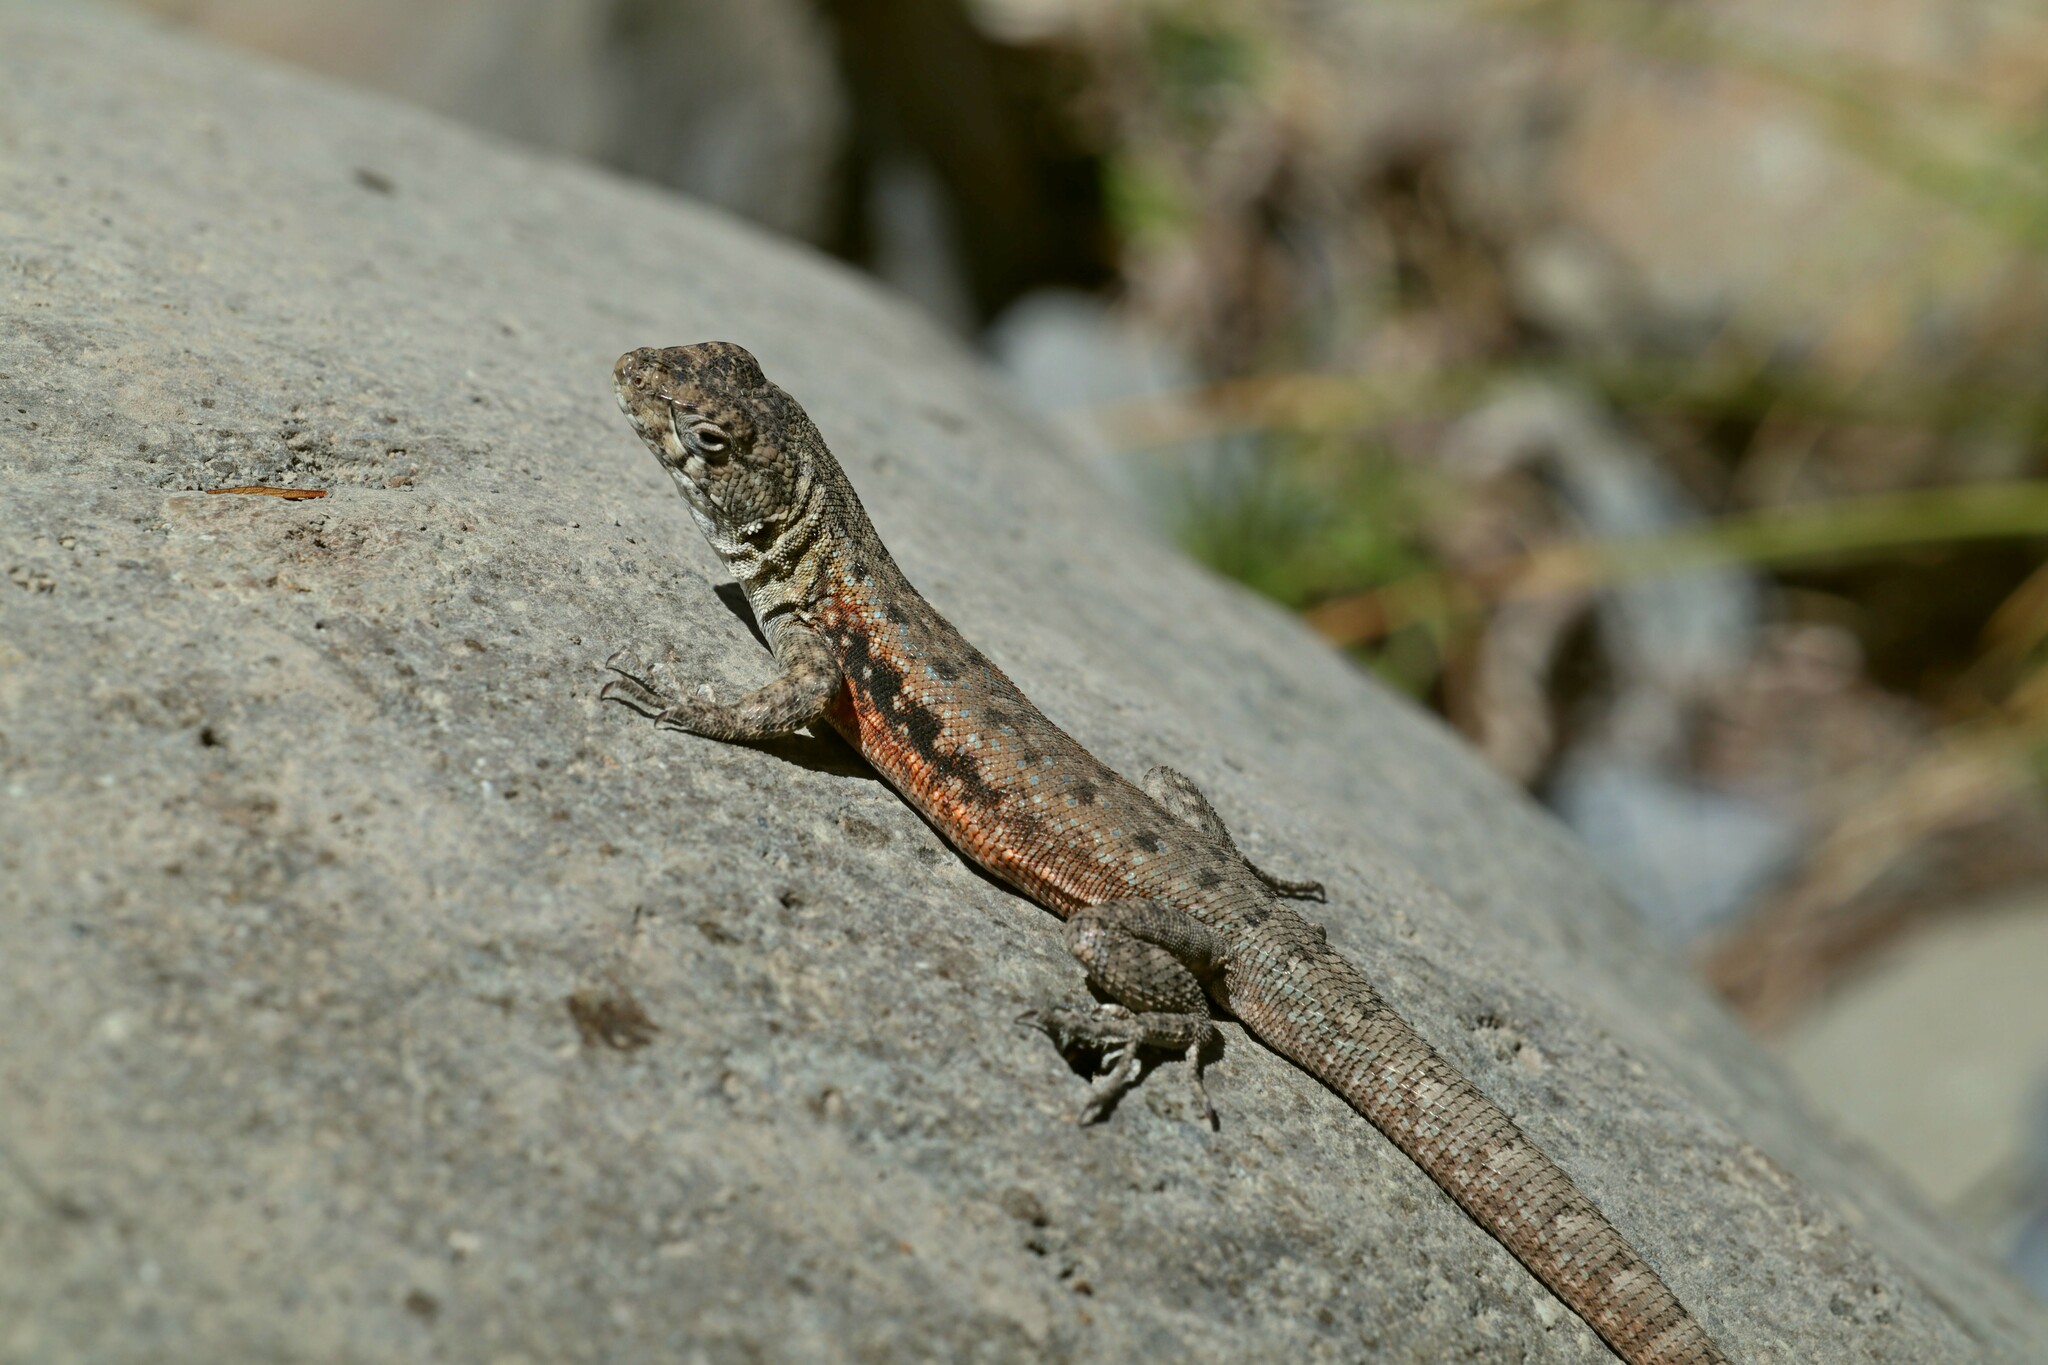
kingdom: Animalia
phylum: Chordata
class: Squamata
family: Liolaemidae
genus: Liolaemus
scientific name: Liolaemus monticola
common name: Peak tree iguana
